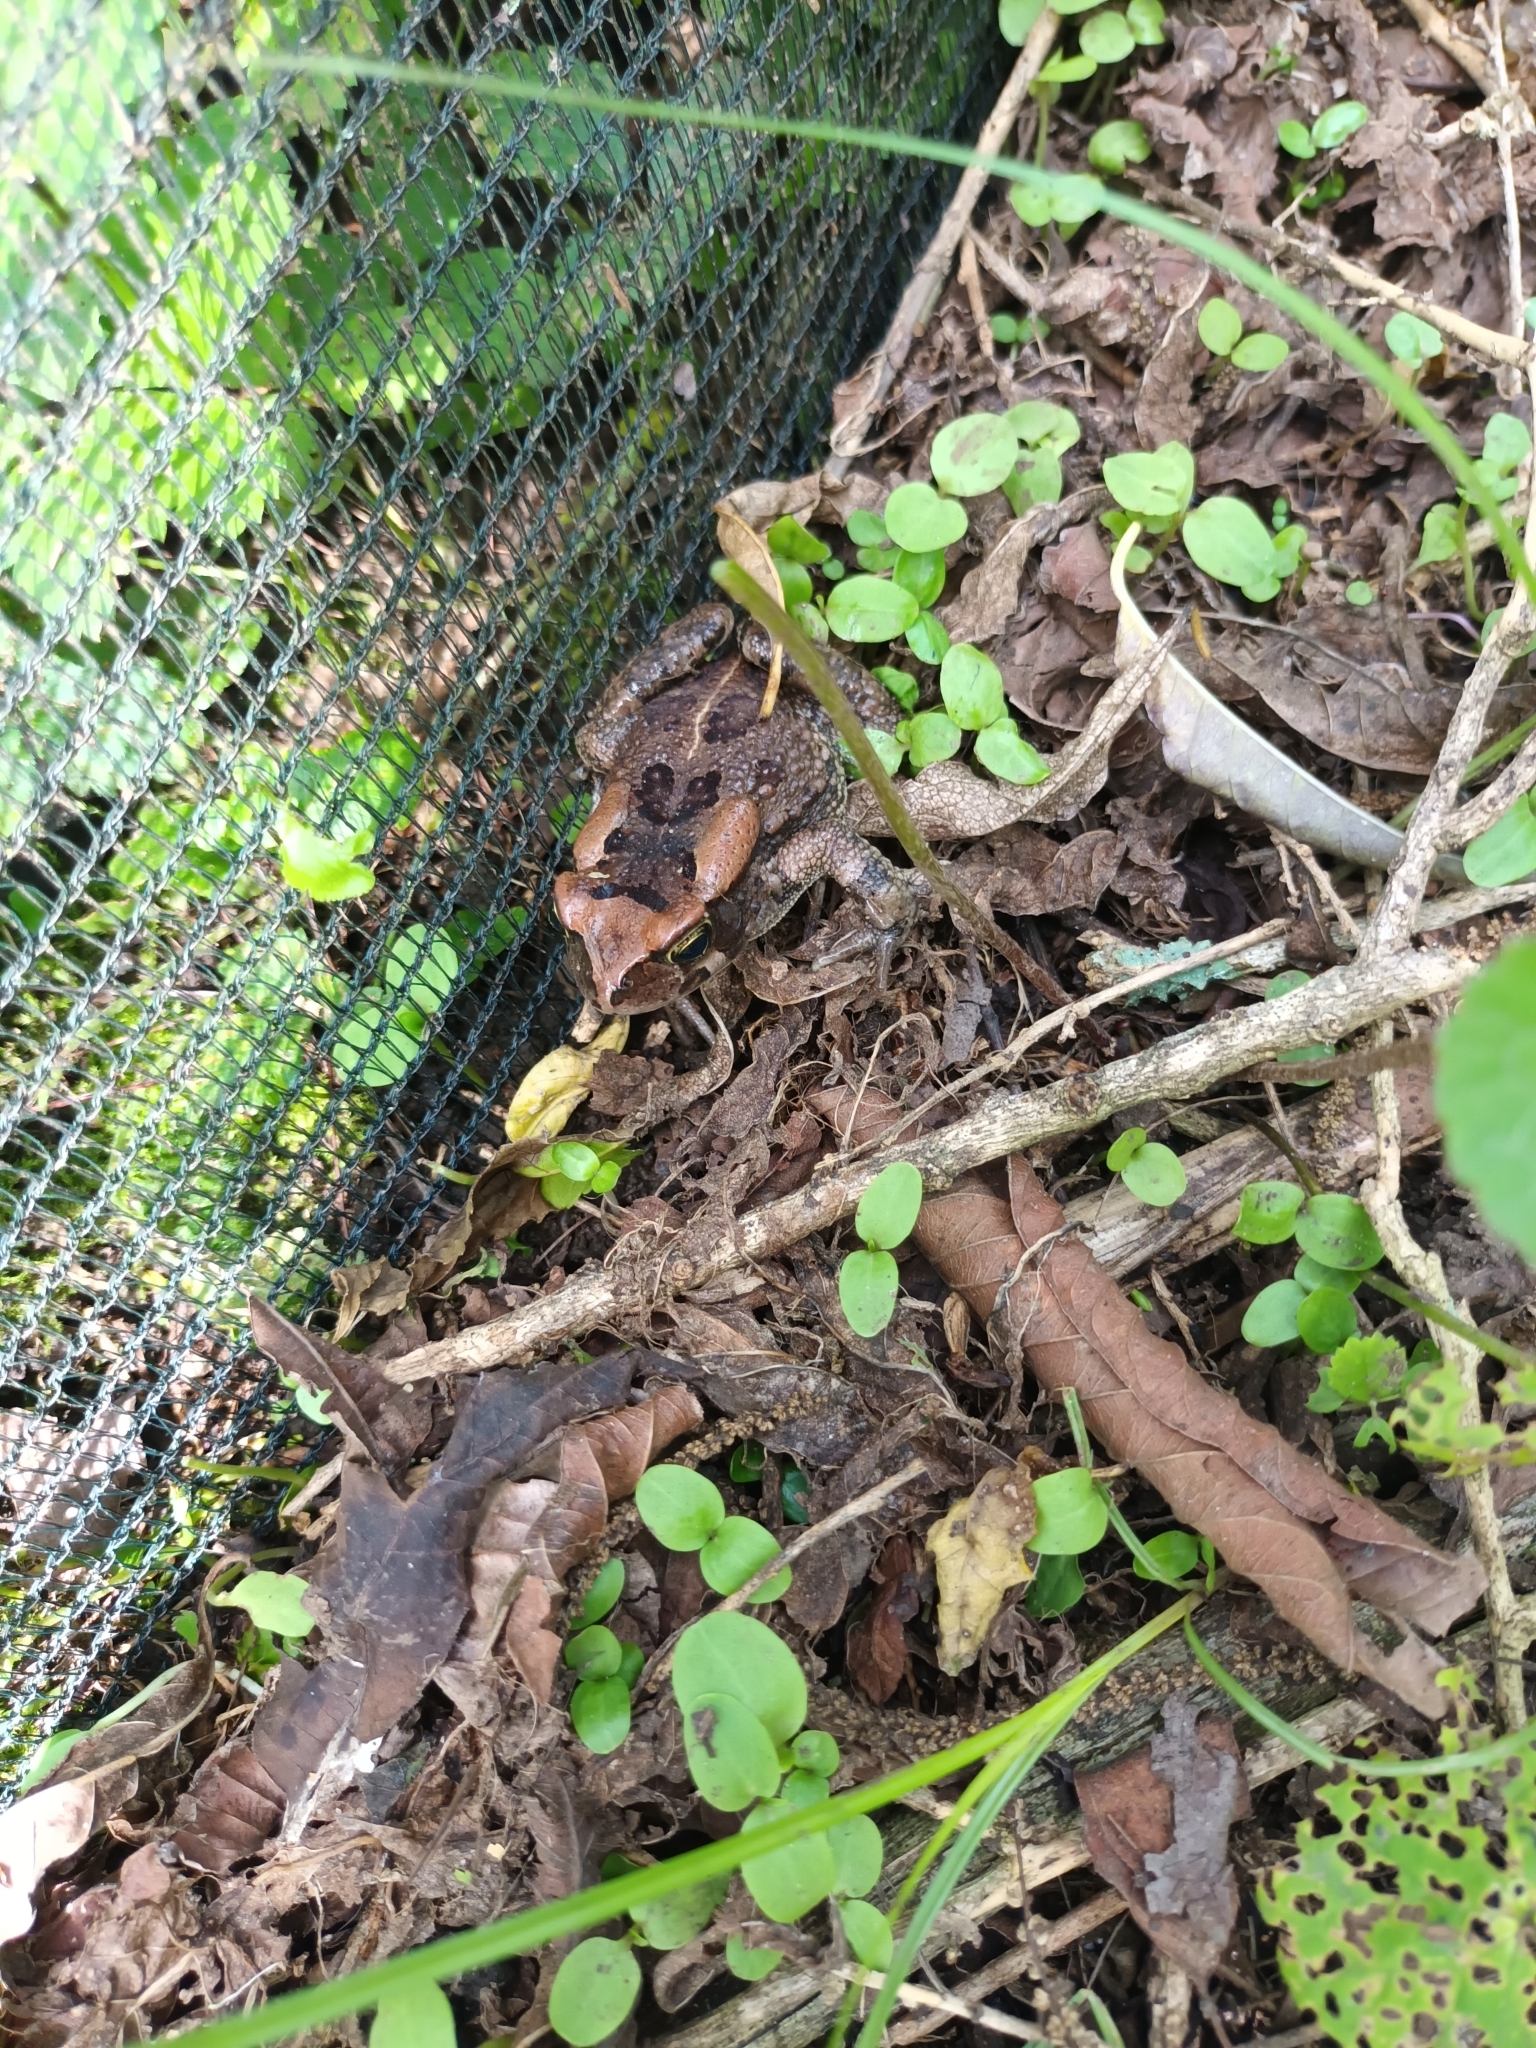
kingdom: Animalia
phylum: Chordata
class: Amphibia
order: Anura
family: Bufonidae
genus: Sclerophrys
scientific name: Sclerophrys capensis
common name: Ranger’s toad
